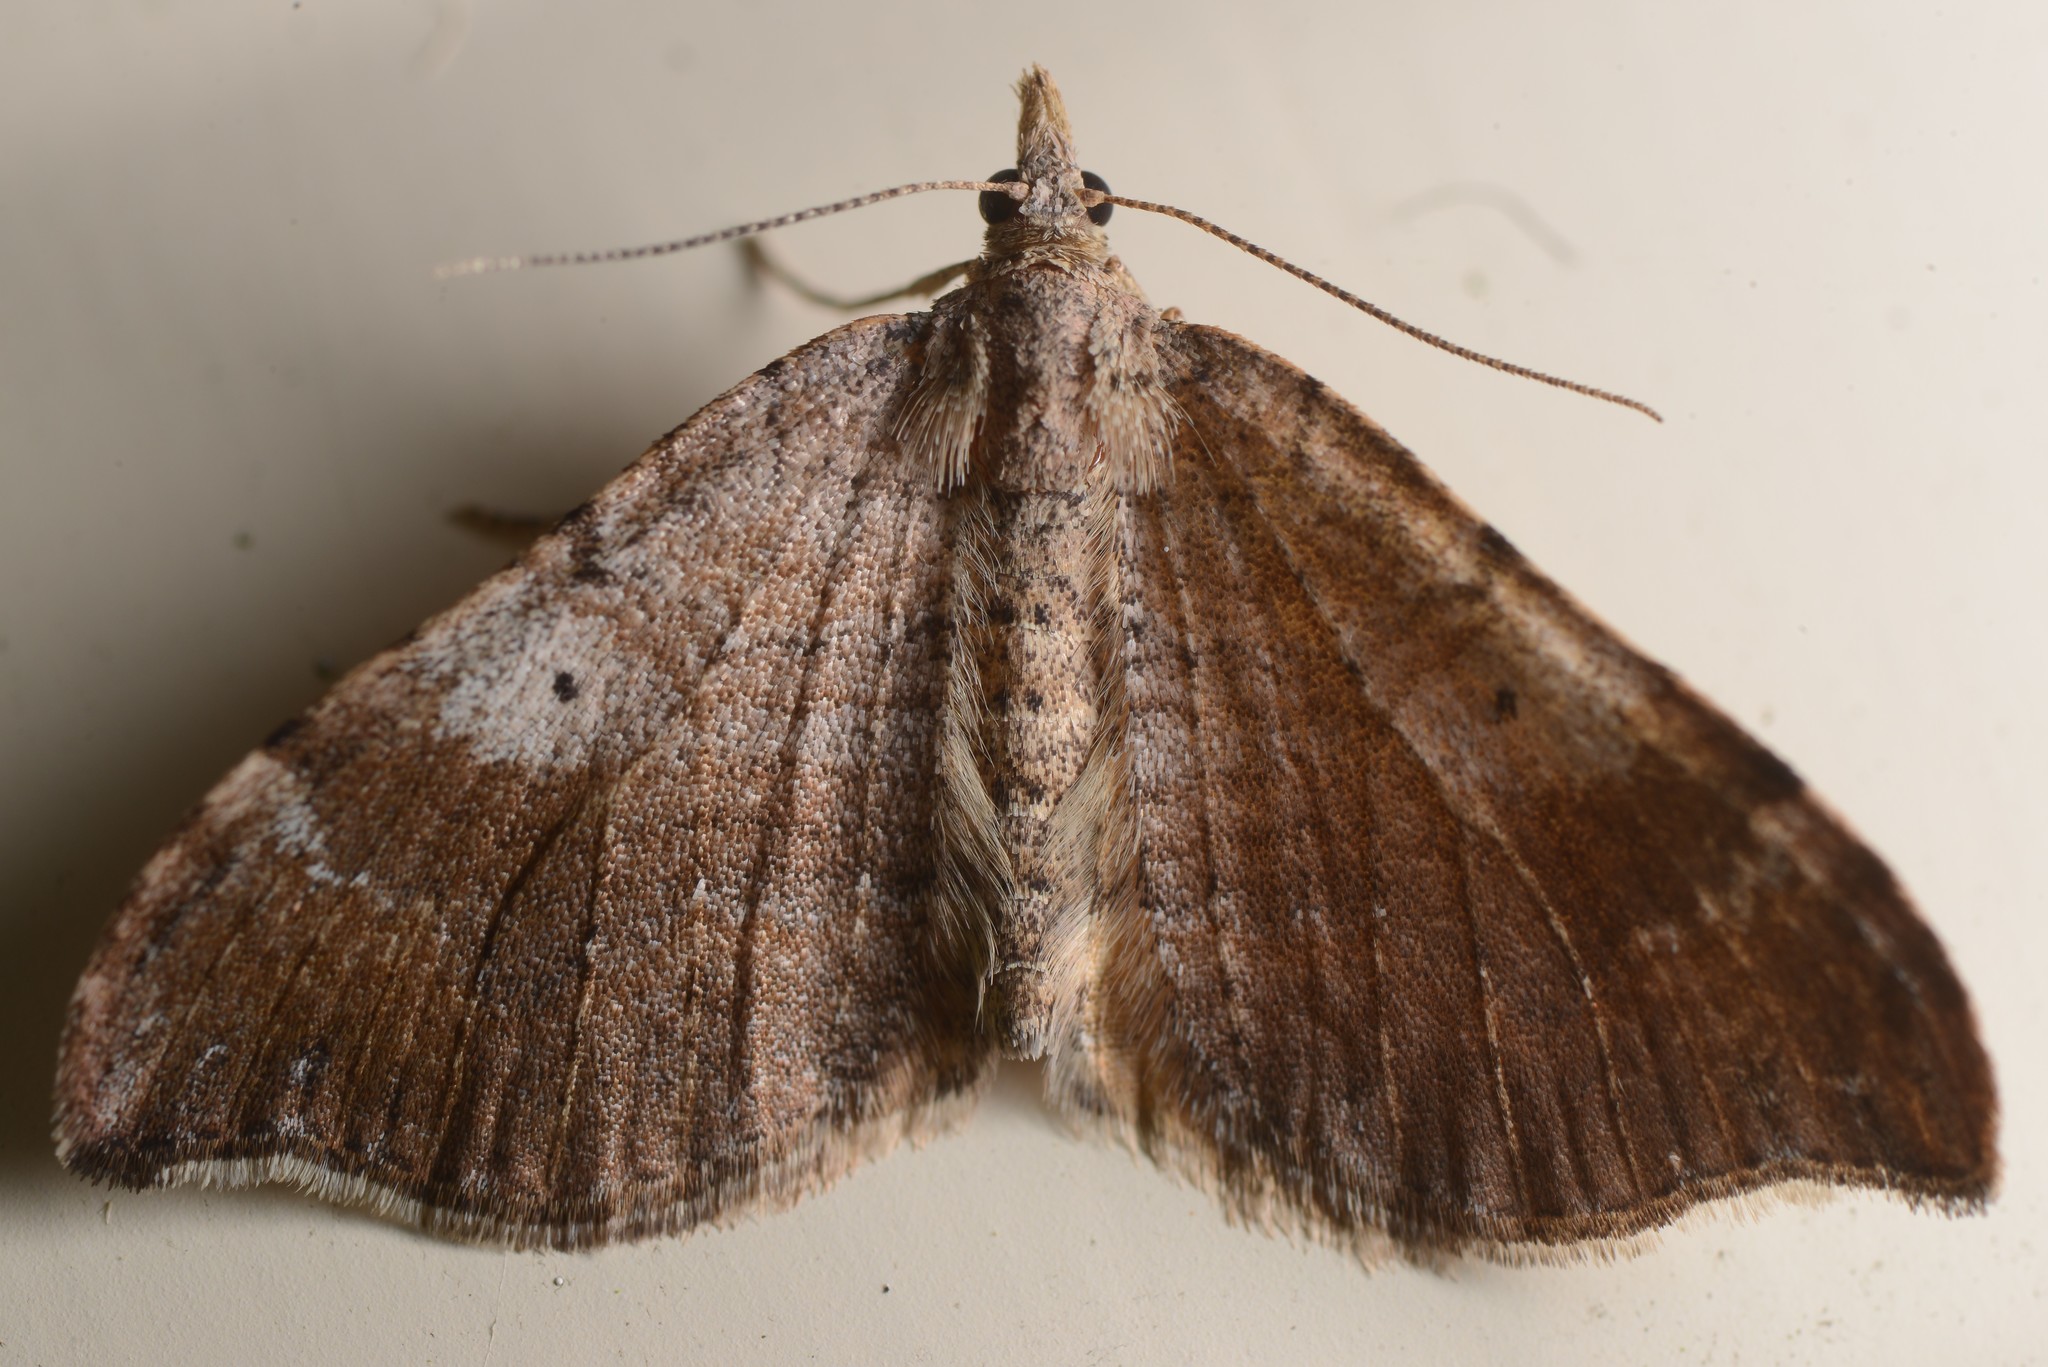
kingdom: Animalia
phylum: Arthropoda
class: Insecta
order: Lepidoptera
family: Geometridae
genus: Homodotis
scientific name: Homodotis megaspilata
